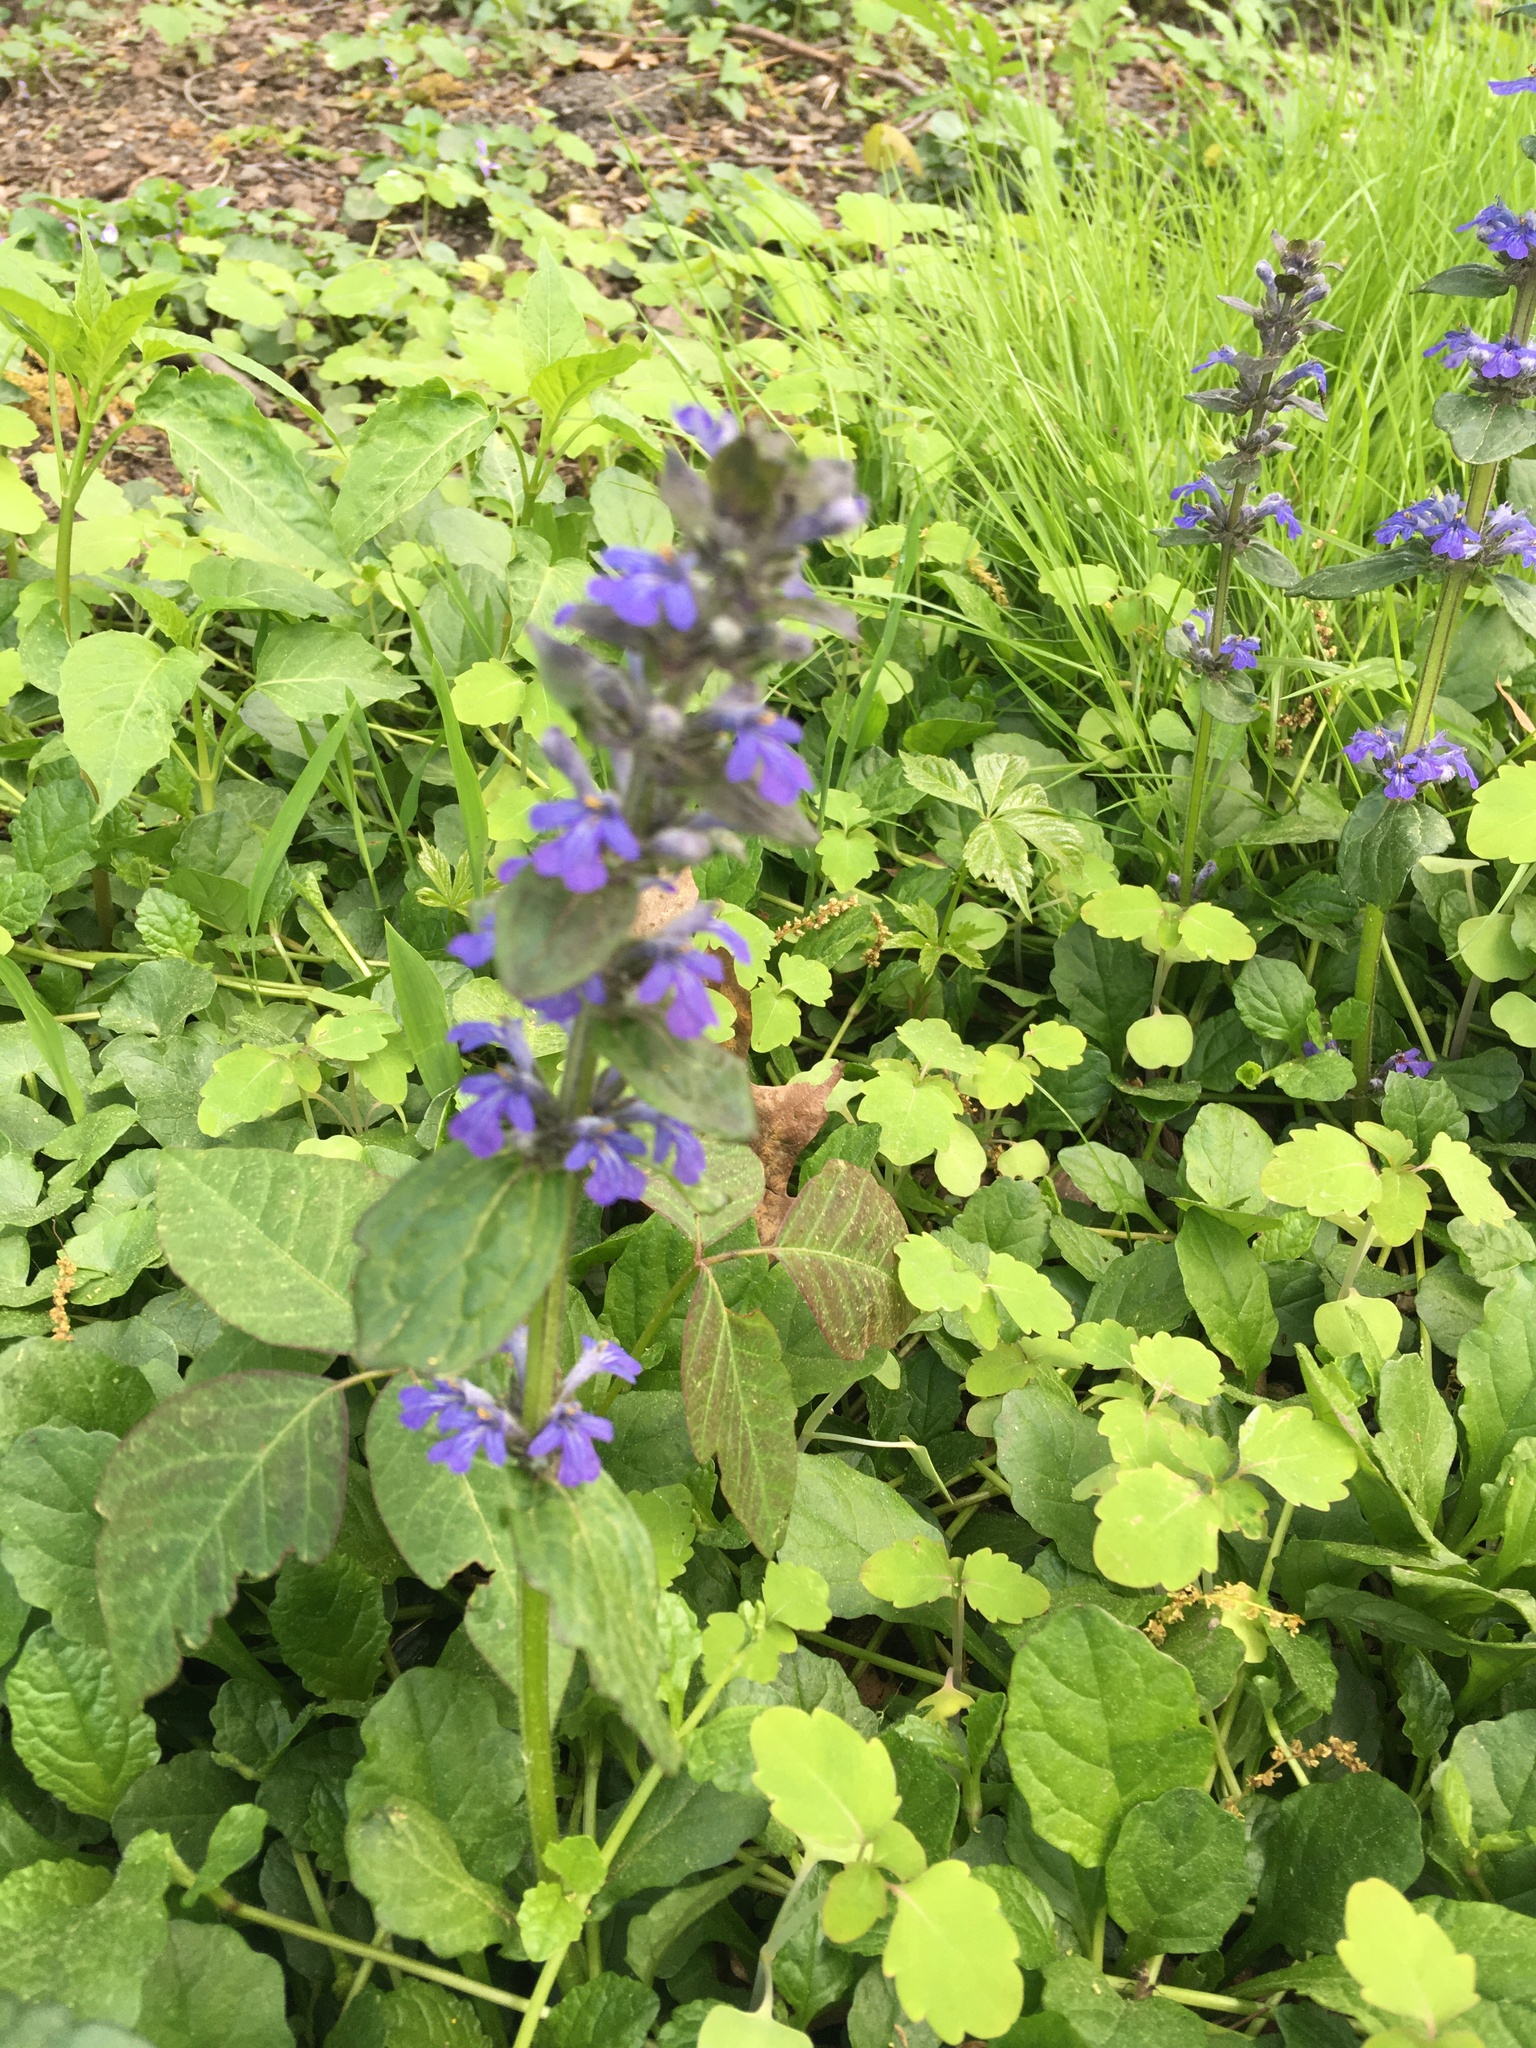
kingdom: Plantae
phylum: Tracheophyta
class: Magnoliopsida
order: Lamiales
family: Lamiaceae
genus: Ajuga
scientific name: Ajuga reptans
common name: Bugle
